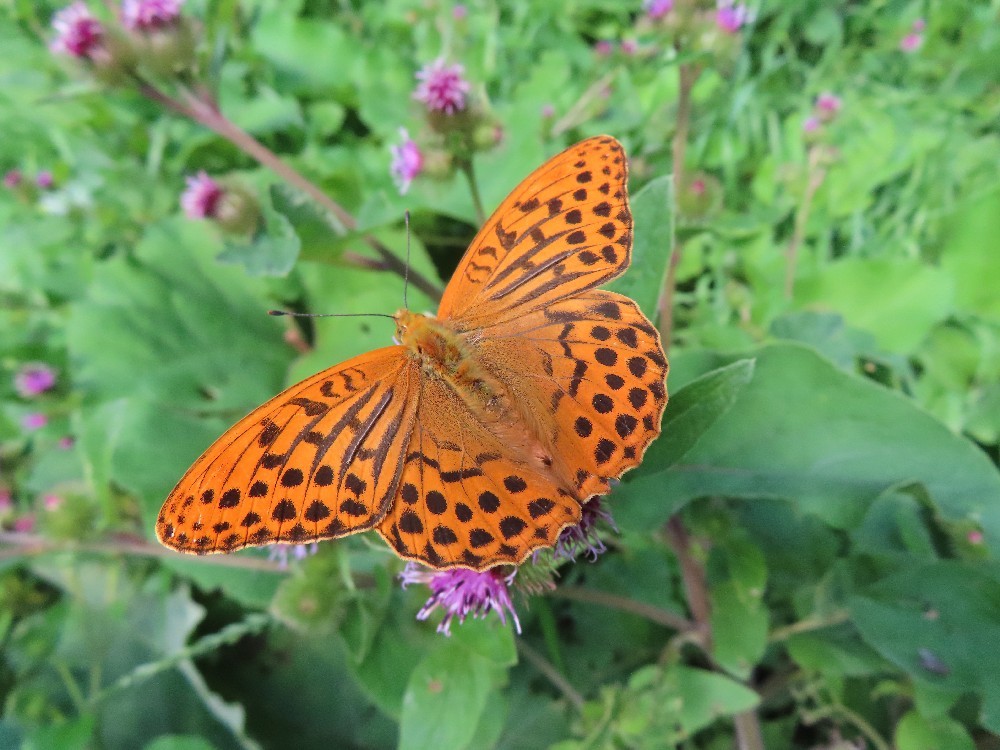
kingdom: Animalia
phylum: Arthropoda
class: Insecta
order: Lepidoptera
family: Nymphalidae
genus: Argynnis
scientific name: Argynnis paphia
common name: Silver-washed fritillary
